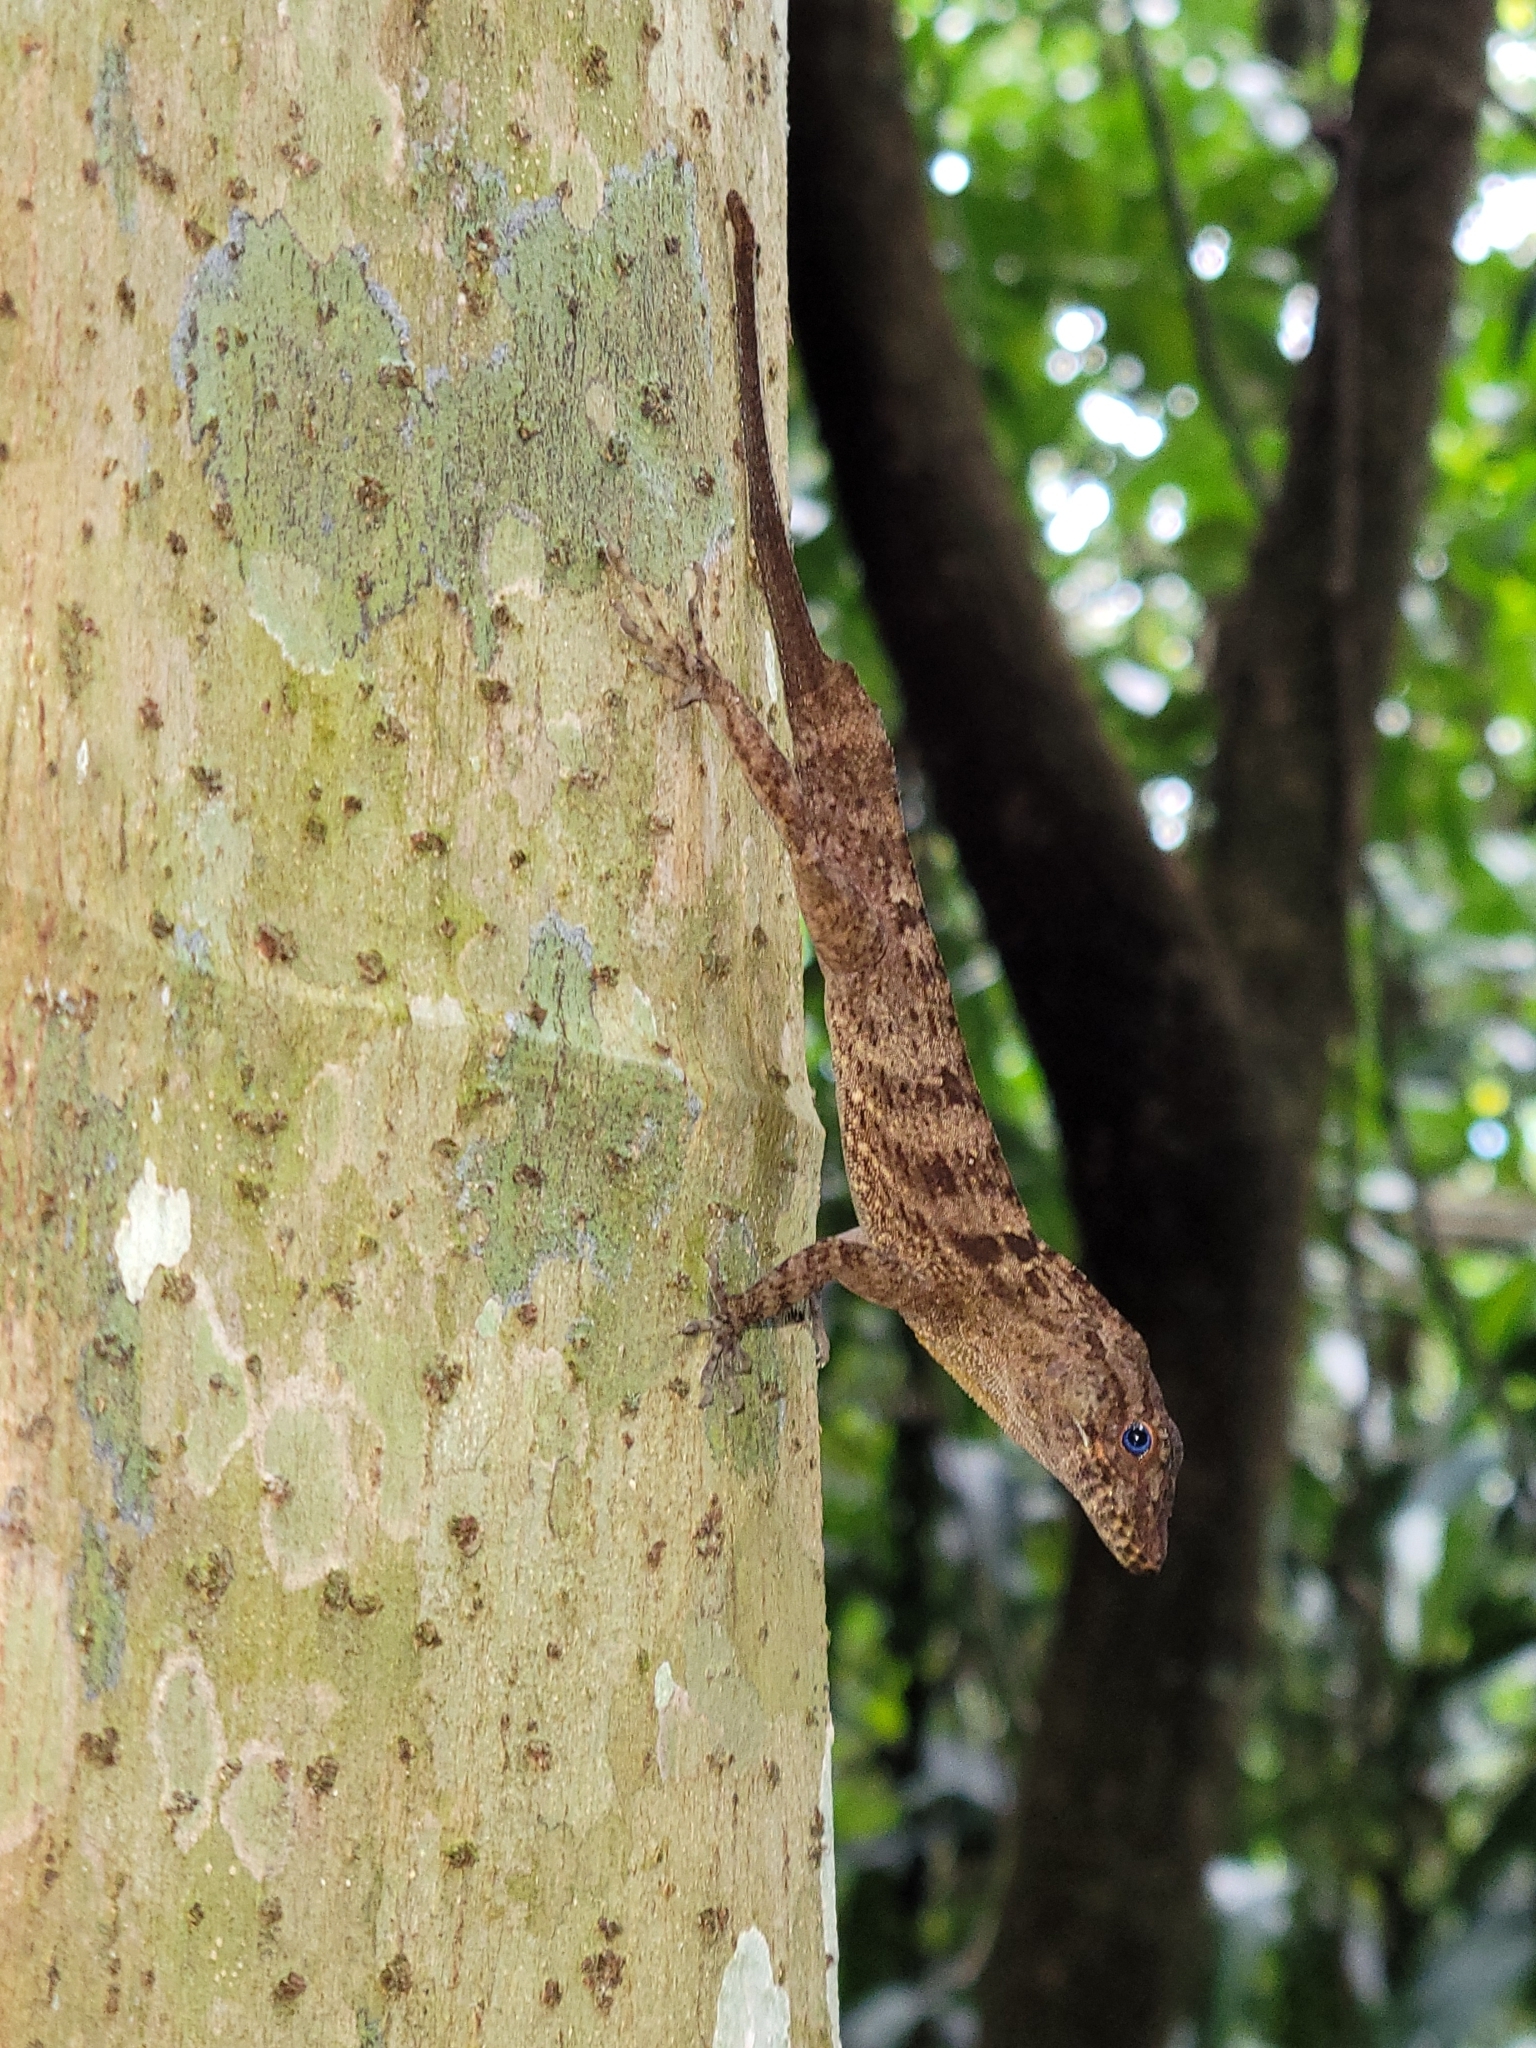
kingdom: Animalia
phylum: Chordata
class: Squamata
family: Dactyloidae
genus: Anolis
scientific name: Anolis gundlachi
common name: Gundlach’s anole
